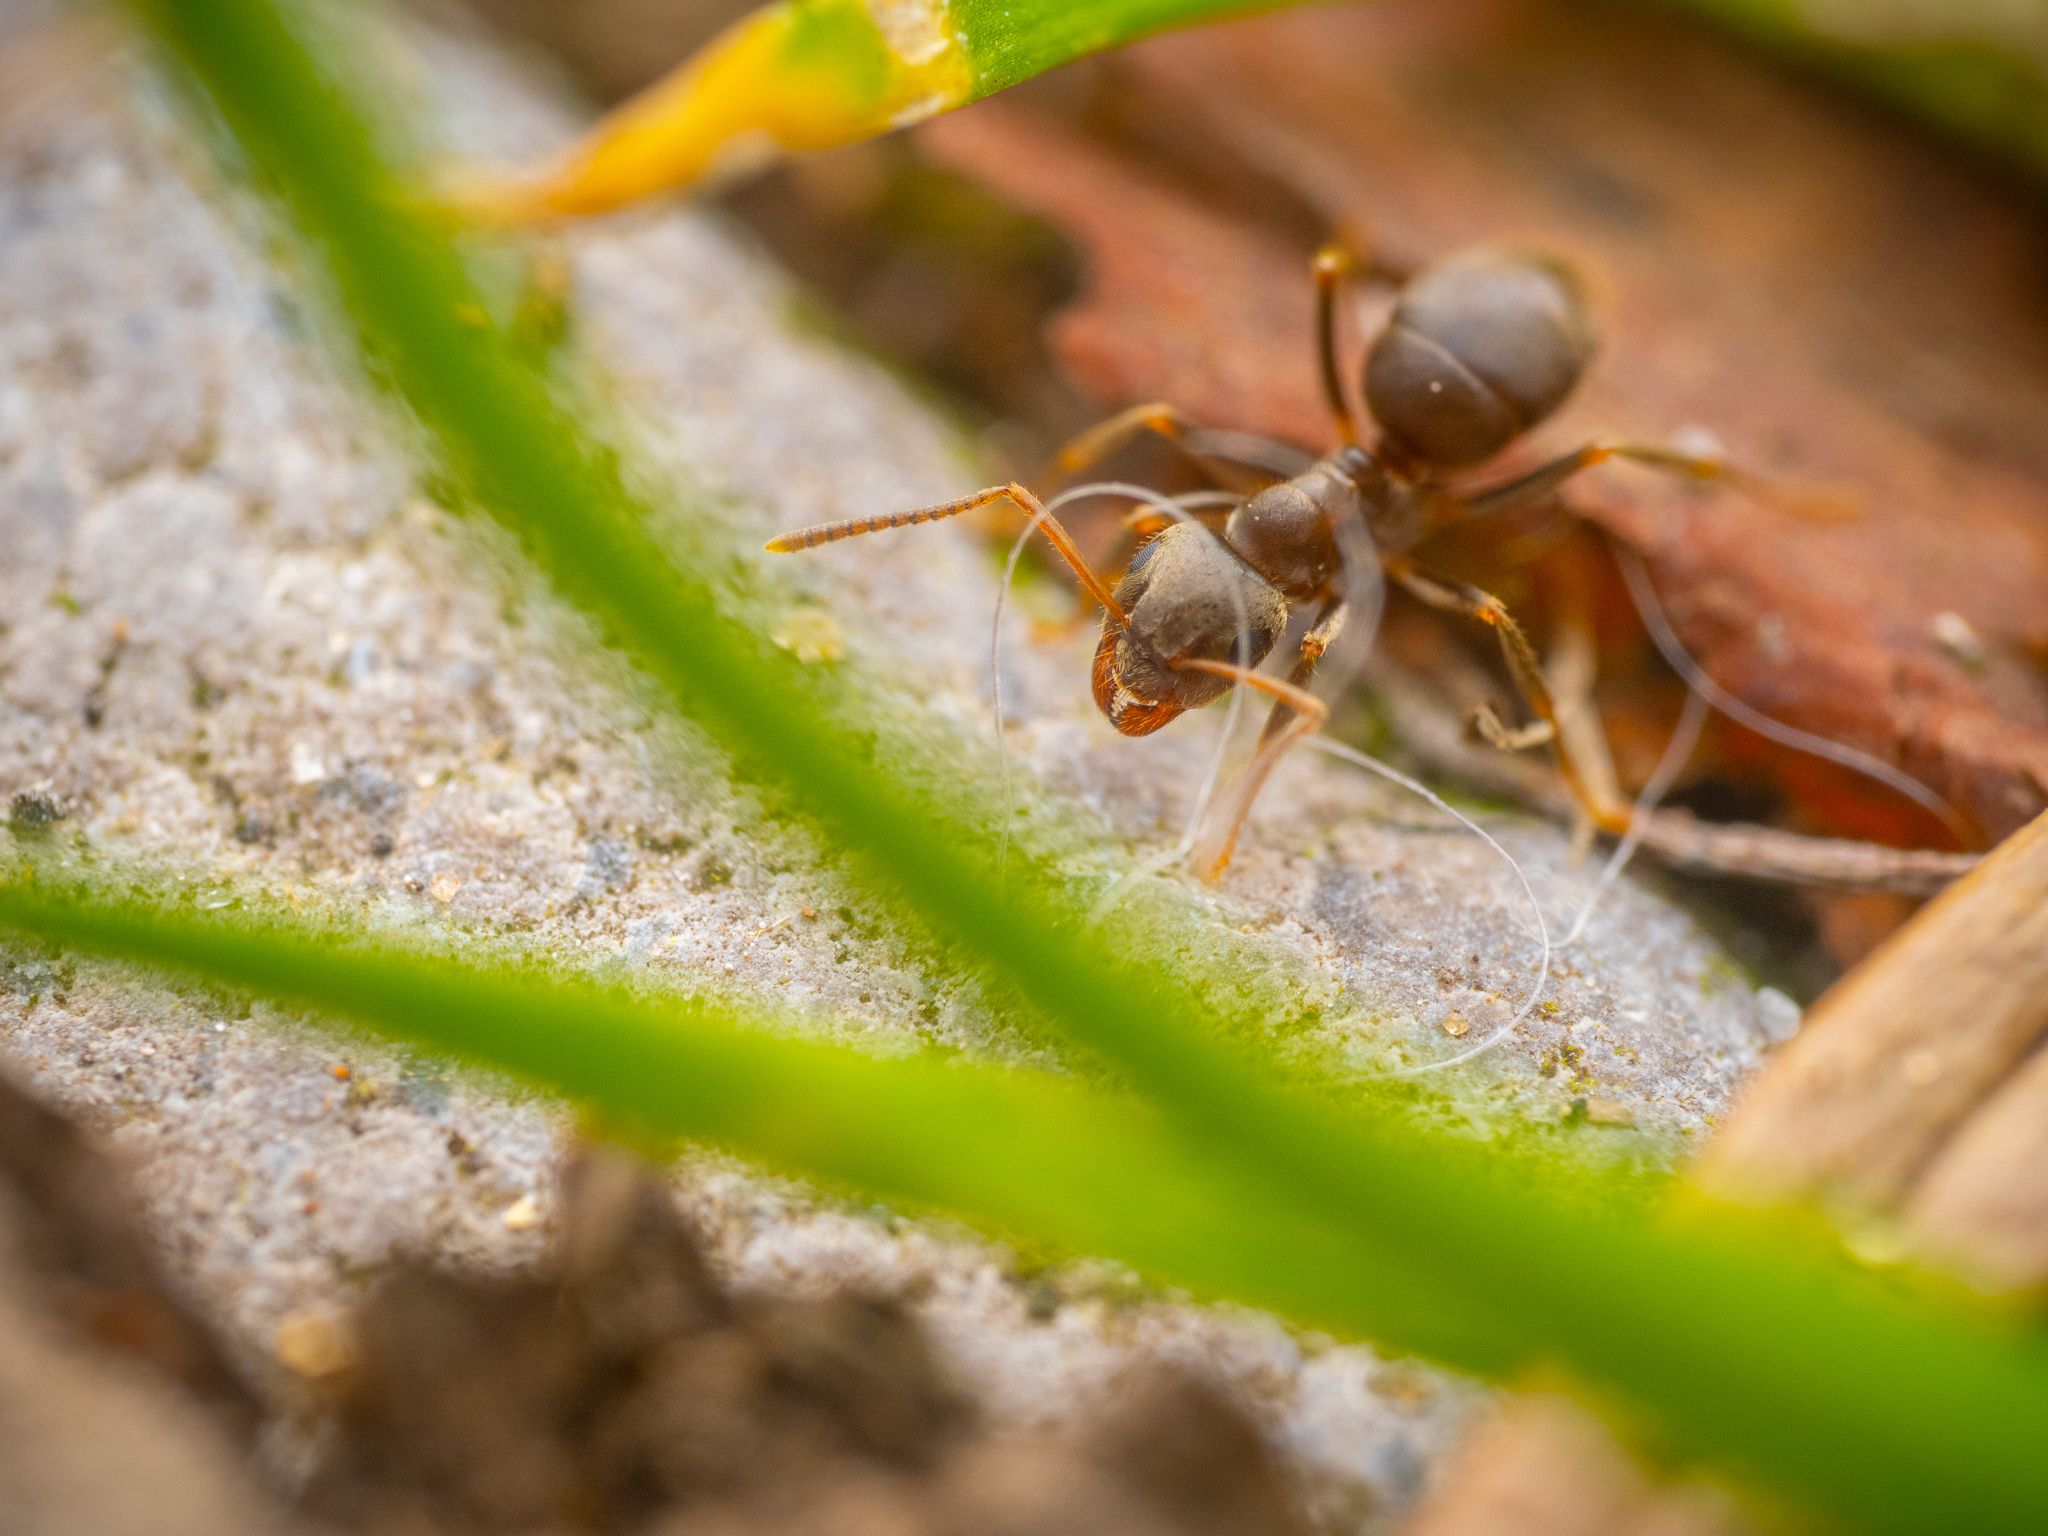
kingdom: Animalia
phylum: Arthropoda
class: Insecta
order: Hymenoptera
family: Formicidae
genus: Lasius
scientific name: Lasius niger
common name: Small black ant
